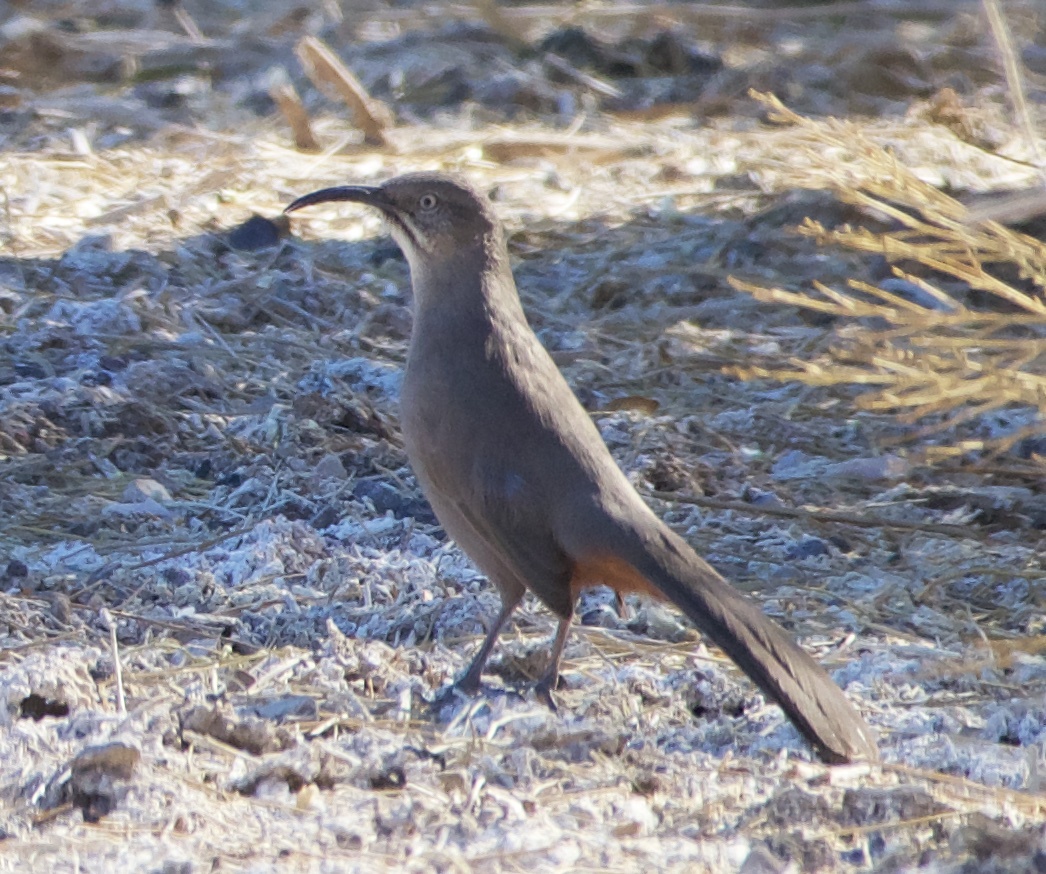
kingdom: Animalia
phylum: Chordata
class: Aves
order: Passeriformes
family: Mimidae
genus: Toxostoma
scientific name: Toxostoma crissale
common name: Crissal thrasher
